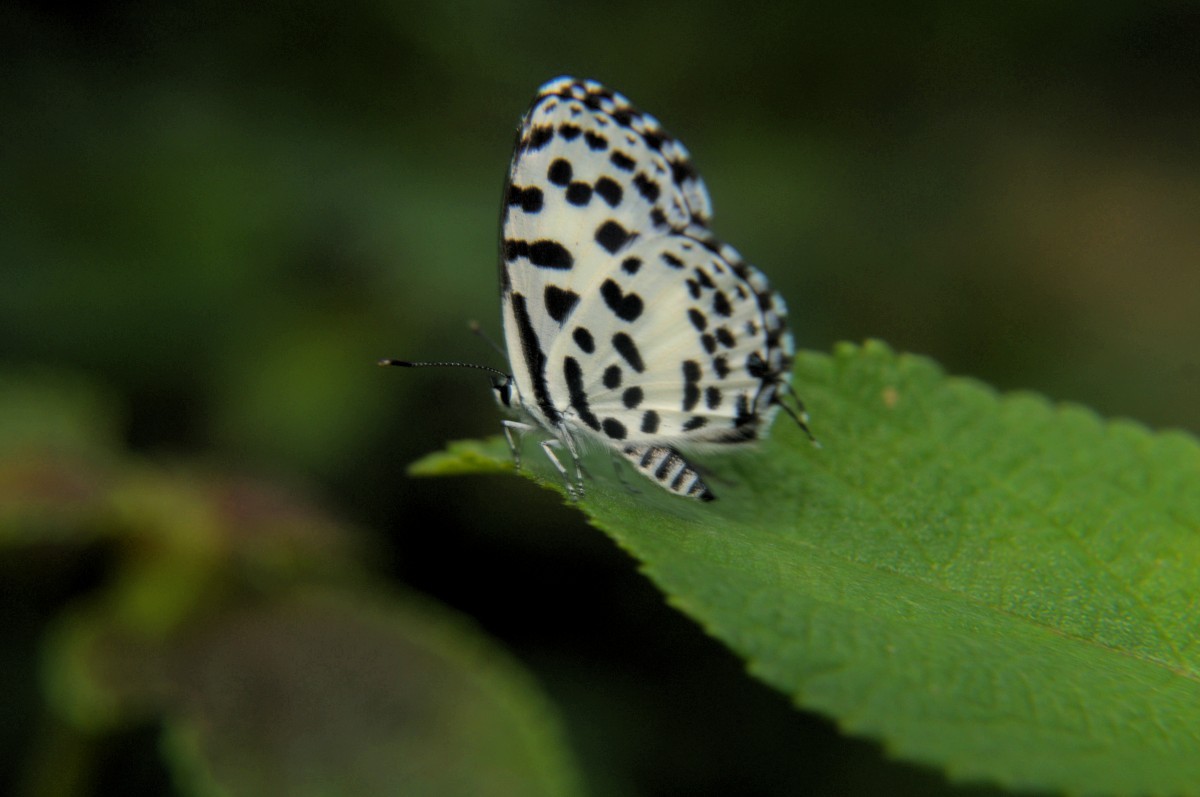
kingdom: Animalia
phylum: Arthropoda
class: Insecta
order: Lepidoptera
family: Lycaenidae
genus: Castalius
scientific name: Castalius rosimon
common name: Common pierrot
